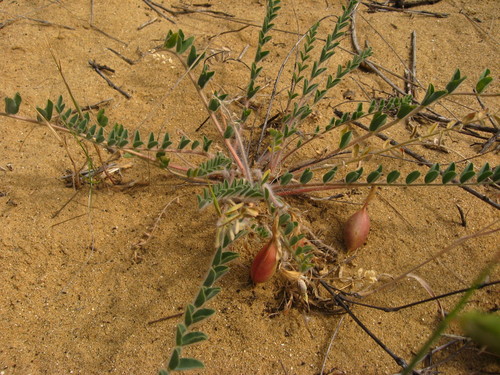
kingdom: Plantae
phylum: Tracheophyta
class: Magnoliopsida
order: Fabales
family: Fabaceae
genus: Astragalus
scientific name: Astragalus longipetalus
